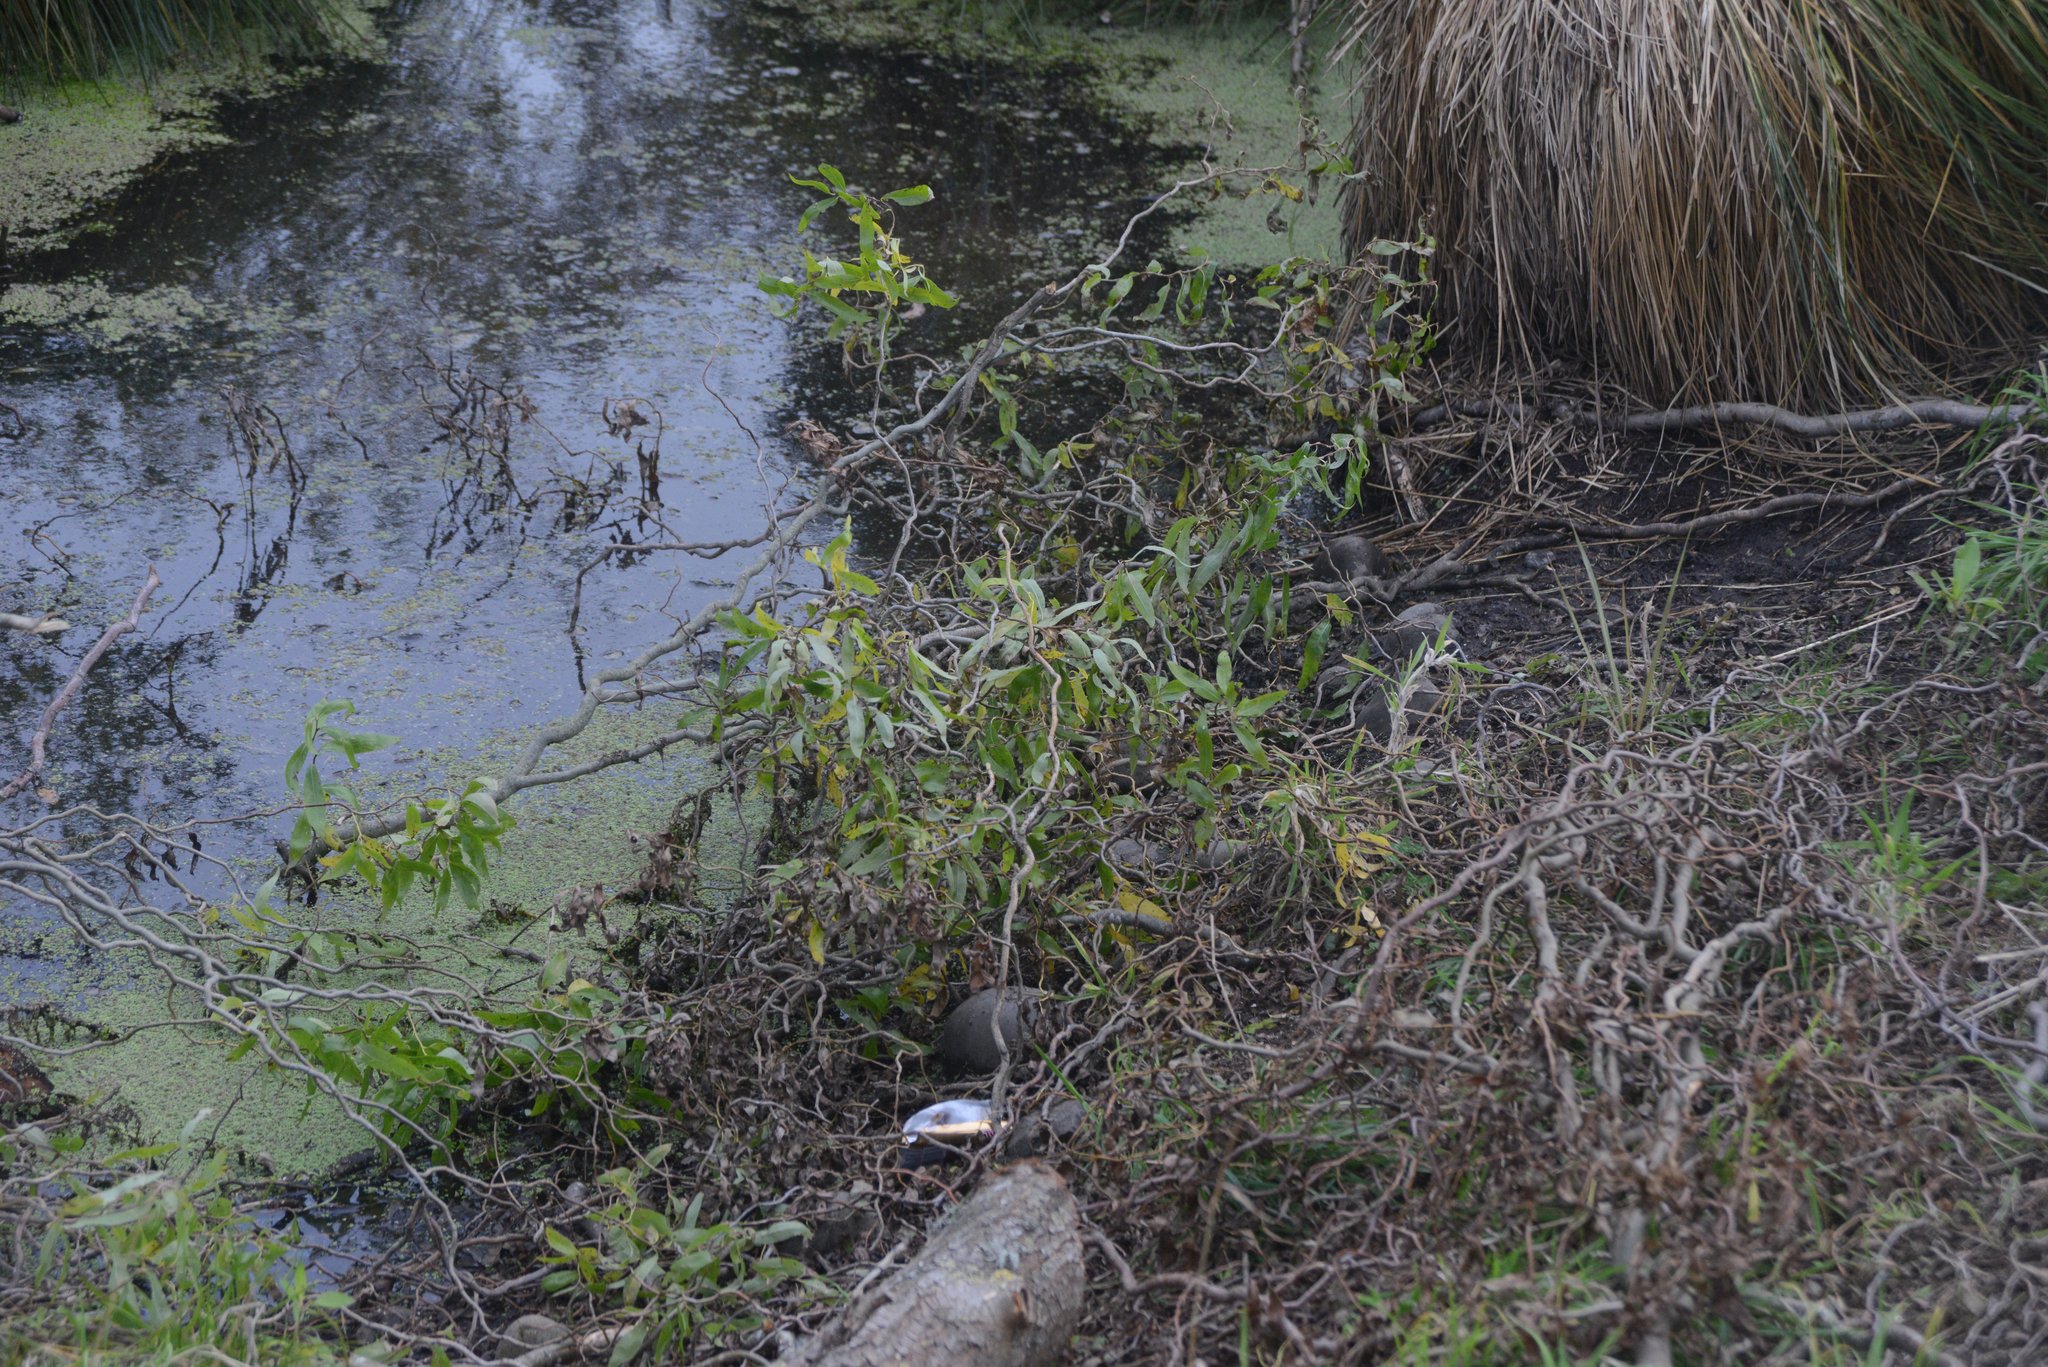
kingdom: Plantae
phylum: Tracheophyta
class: Magnoliopsida
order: Malpighiales
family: Salicaceae
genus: Salix
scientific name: Salix babylonica
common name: Weeping willow
